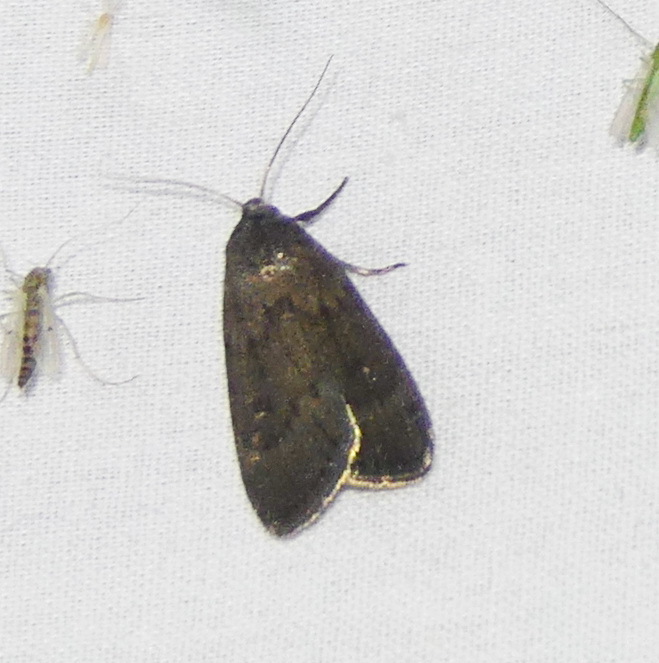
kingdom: Animalia
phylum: Arthropoda
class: Insecta
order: Lepidoptera
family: Noctuidae
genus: Proxenus
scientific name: Proxenus miranda
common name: Miranda moth
